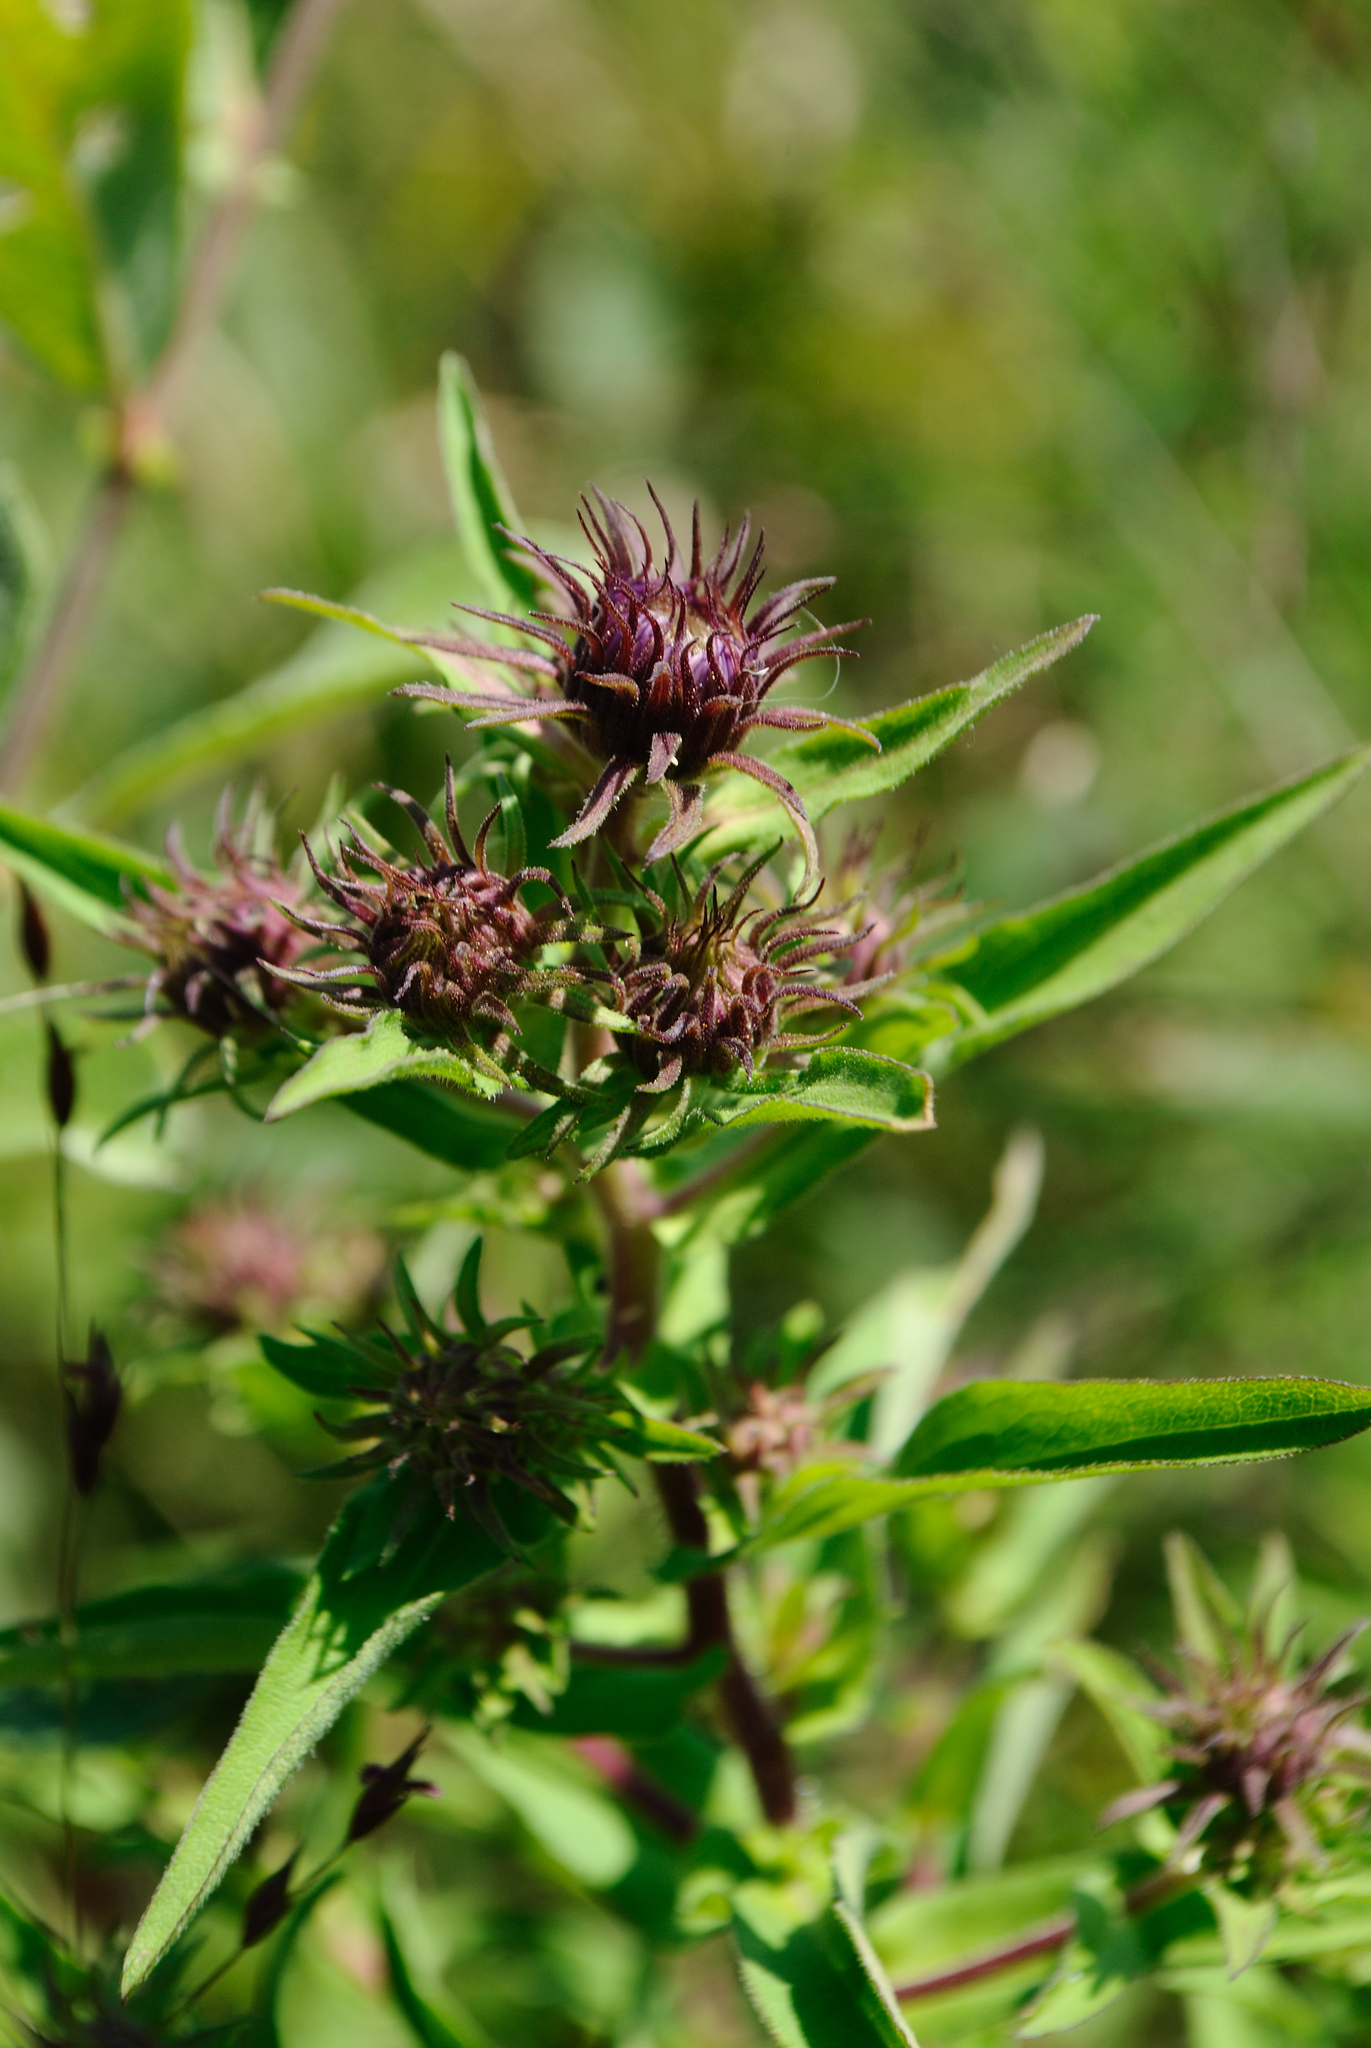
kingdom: Plantae
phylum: Tracheophyta
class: Magnoliopsida
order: Asterales
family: Asteraceae
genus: Symphyotrichum
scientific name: Symphyotrichum novae-angliae
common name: Michaelmas daisy
